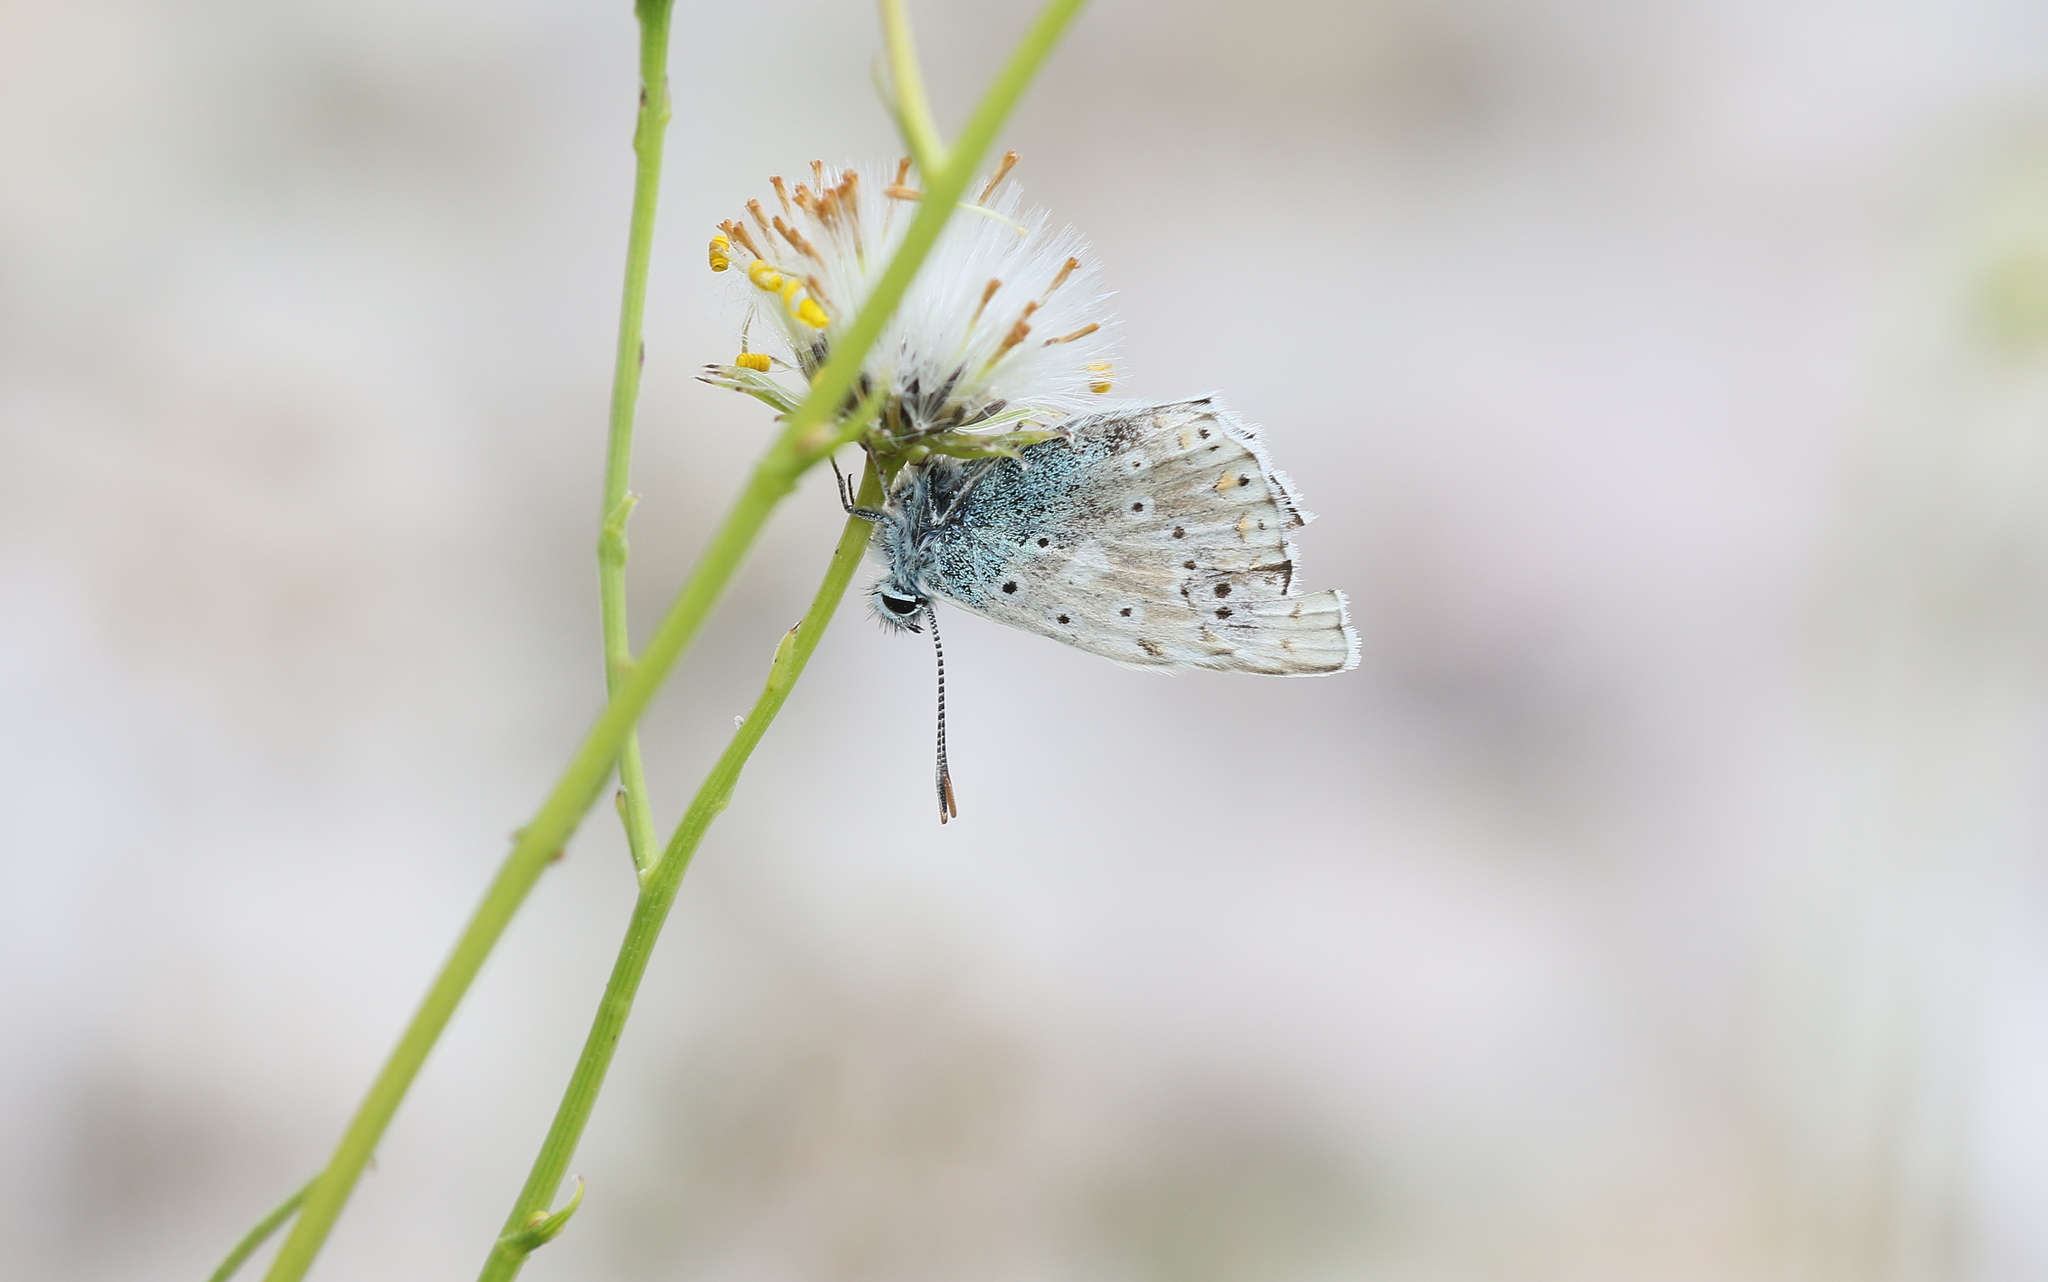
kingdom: Animalia
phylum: Arthropoda
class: Insecta
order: Lepidoptera
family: Lycaenidae
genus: Lysandra
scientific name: Lysandra coridon
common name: Chalkhill blue
